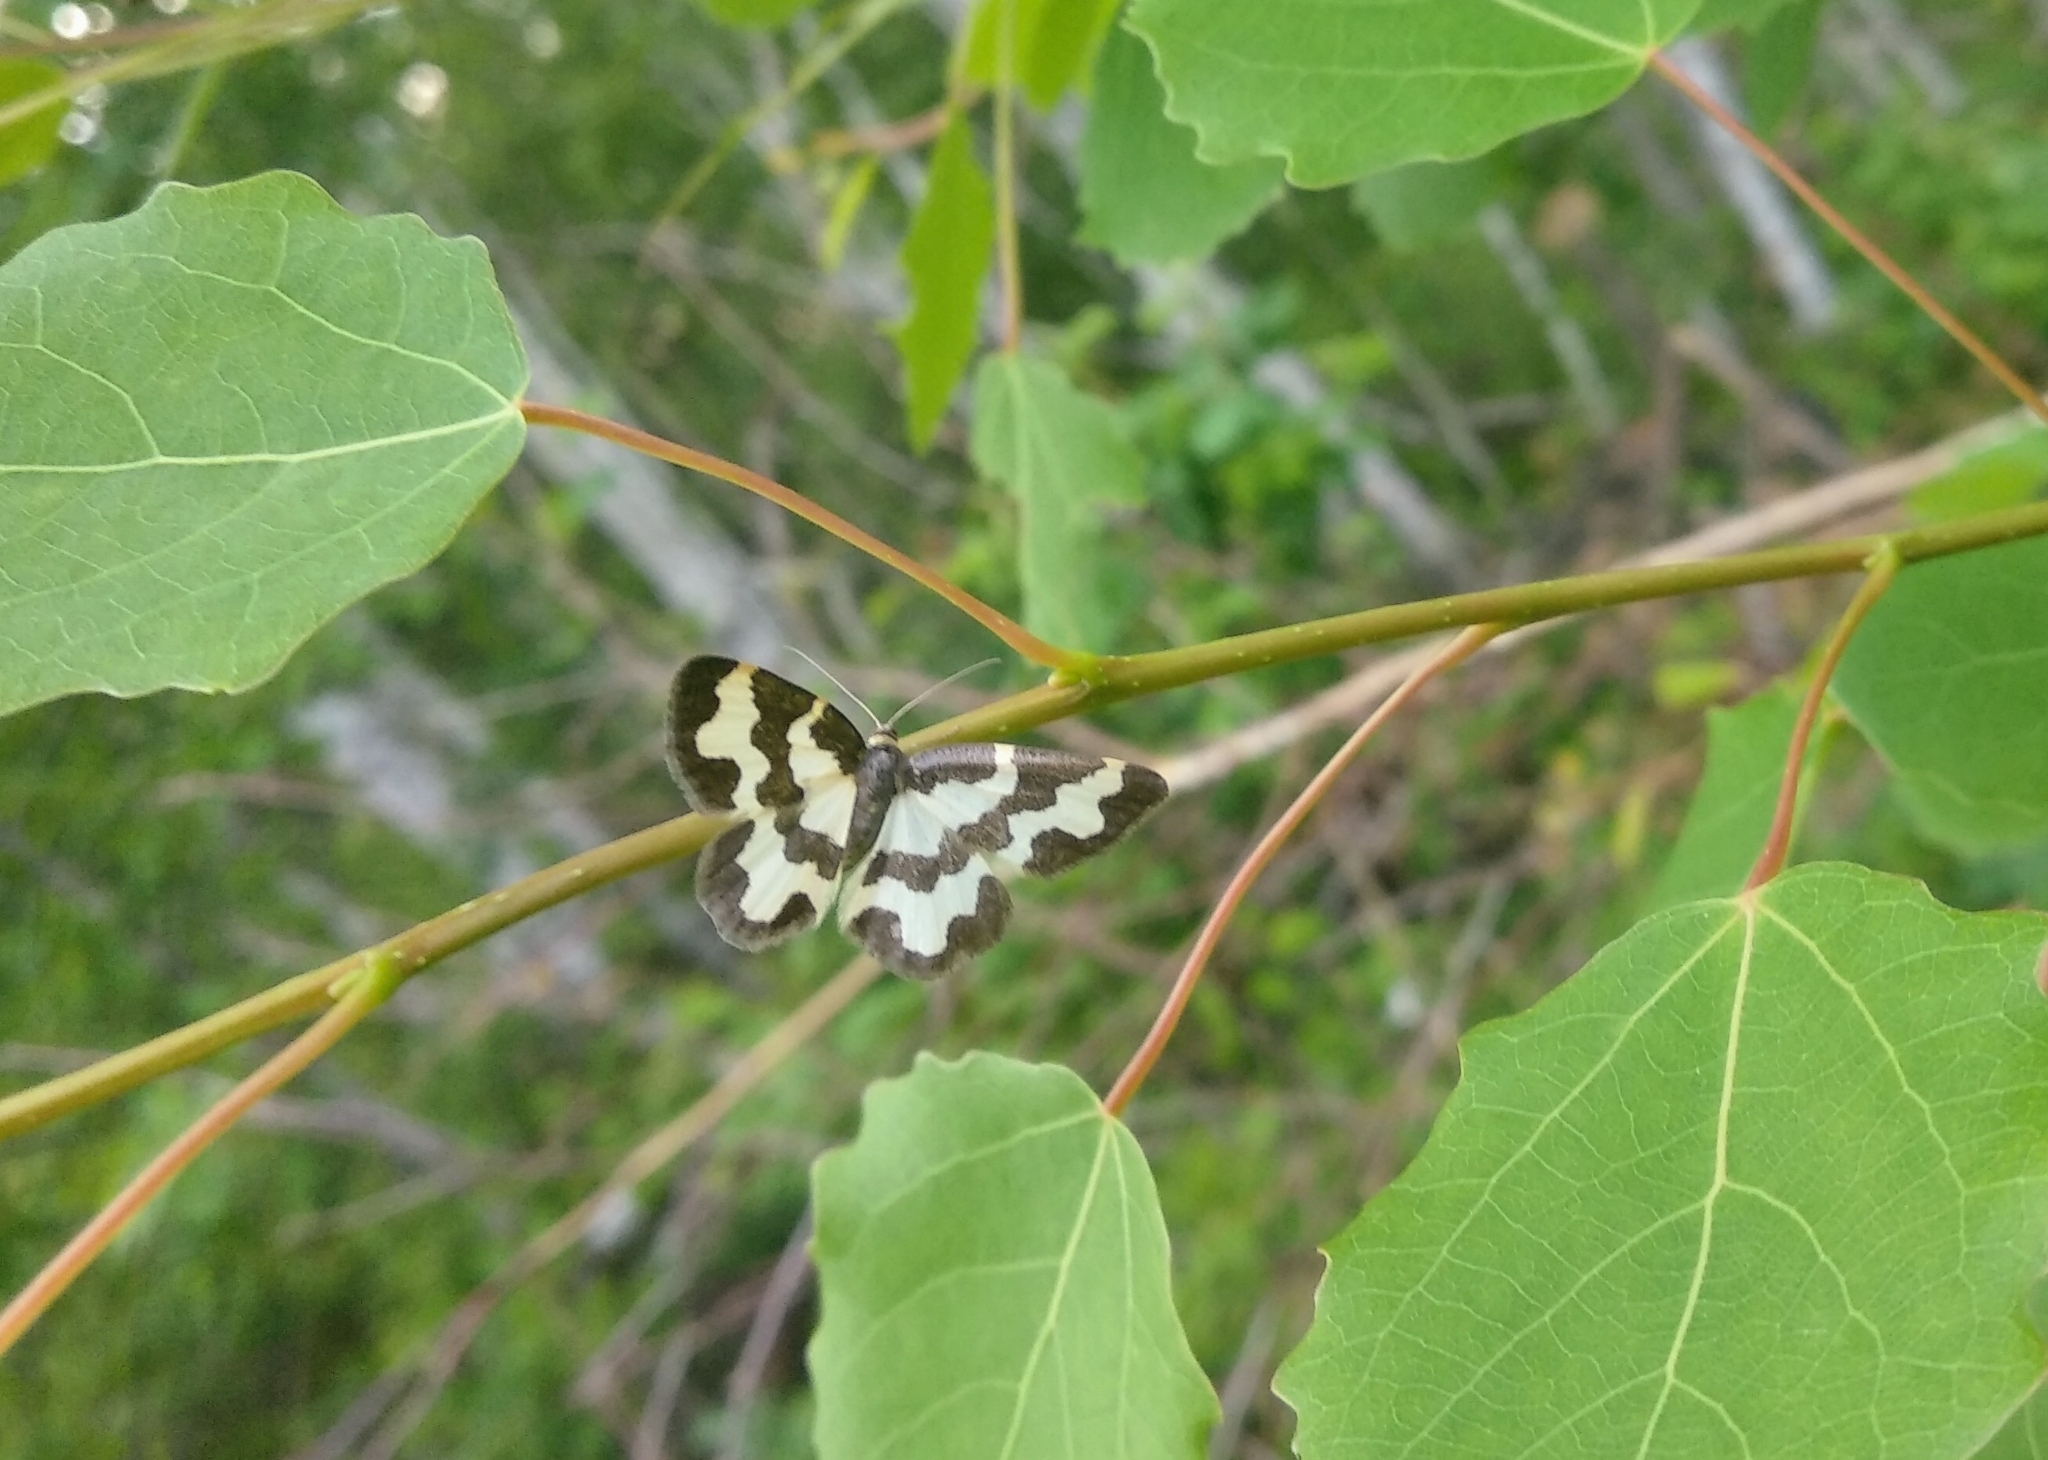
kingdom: Animalia
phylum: Arthropoda
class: Insecta
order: Lepidoptera
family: Geometridae
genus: Lomaspilis
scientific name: Lomaspilis marginata
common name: Clouded border
